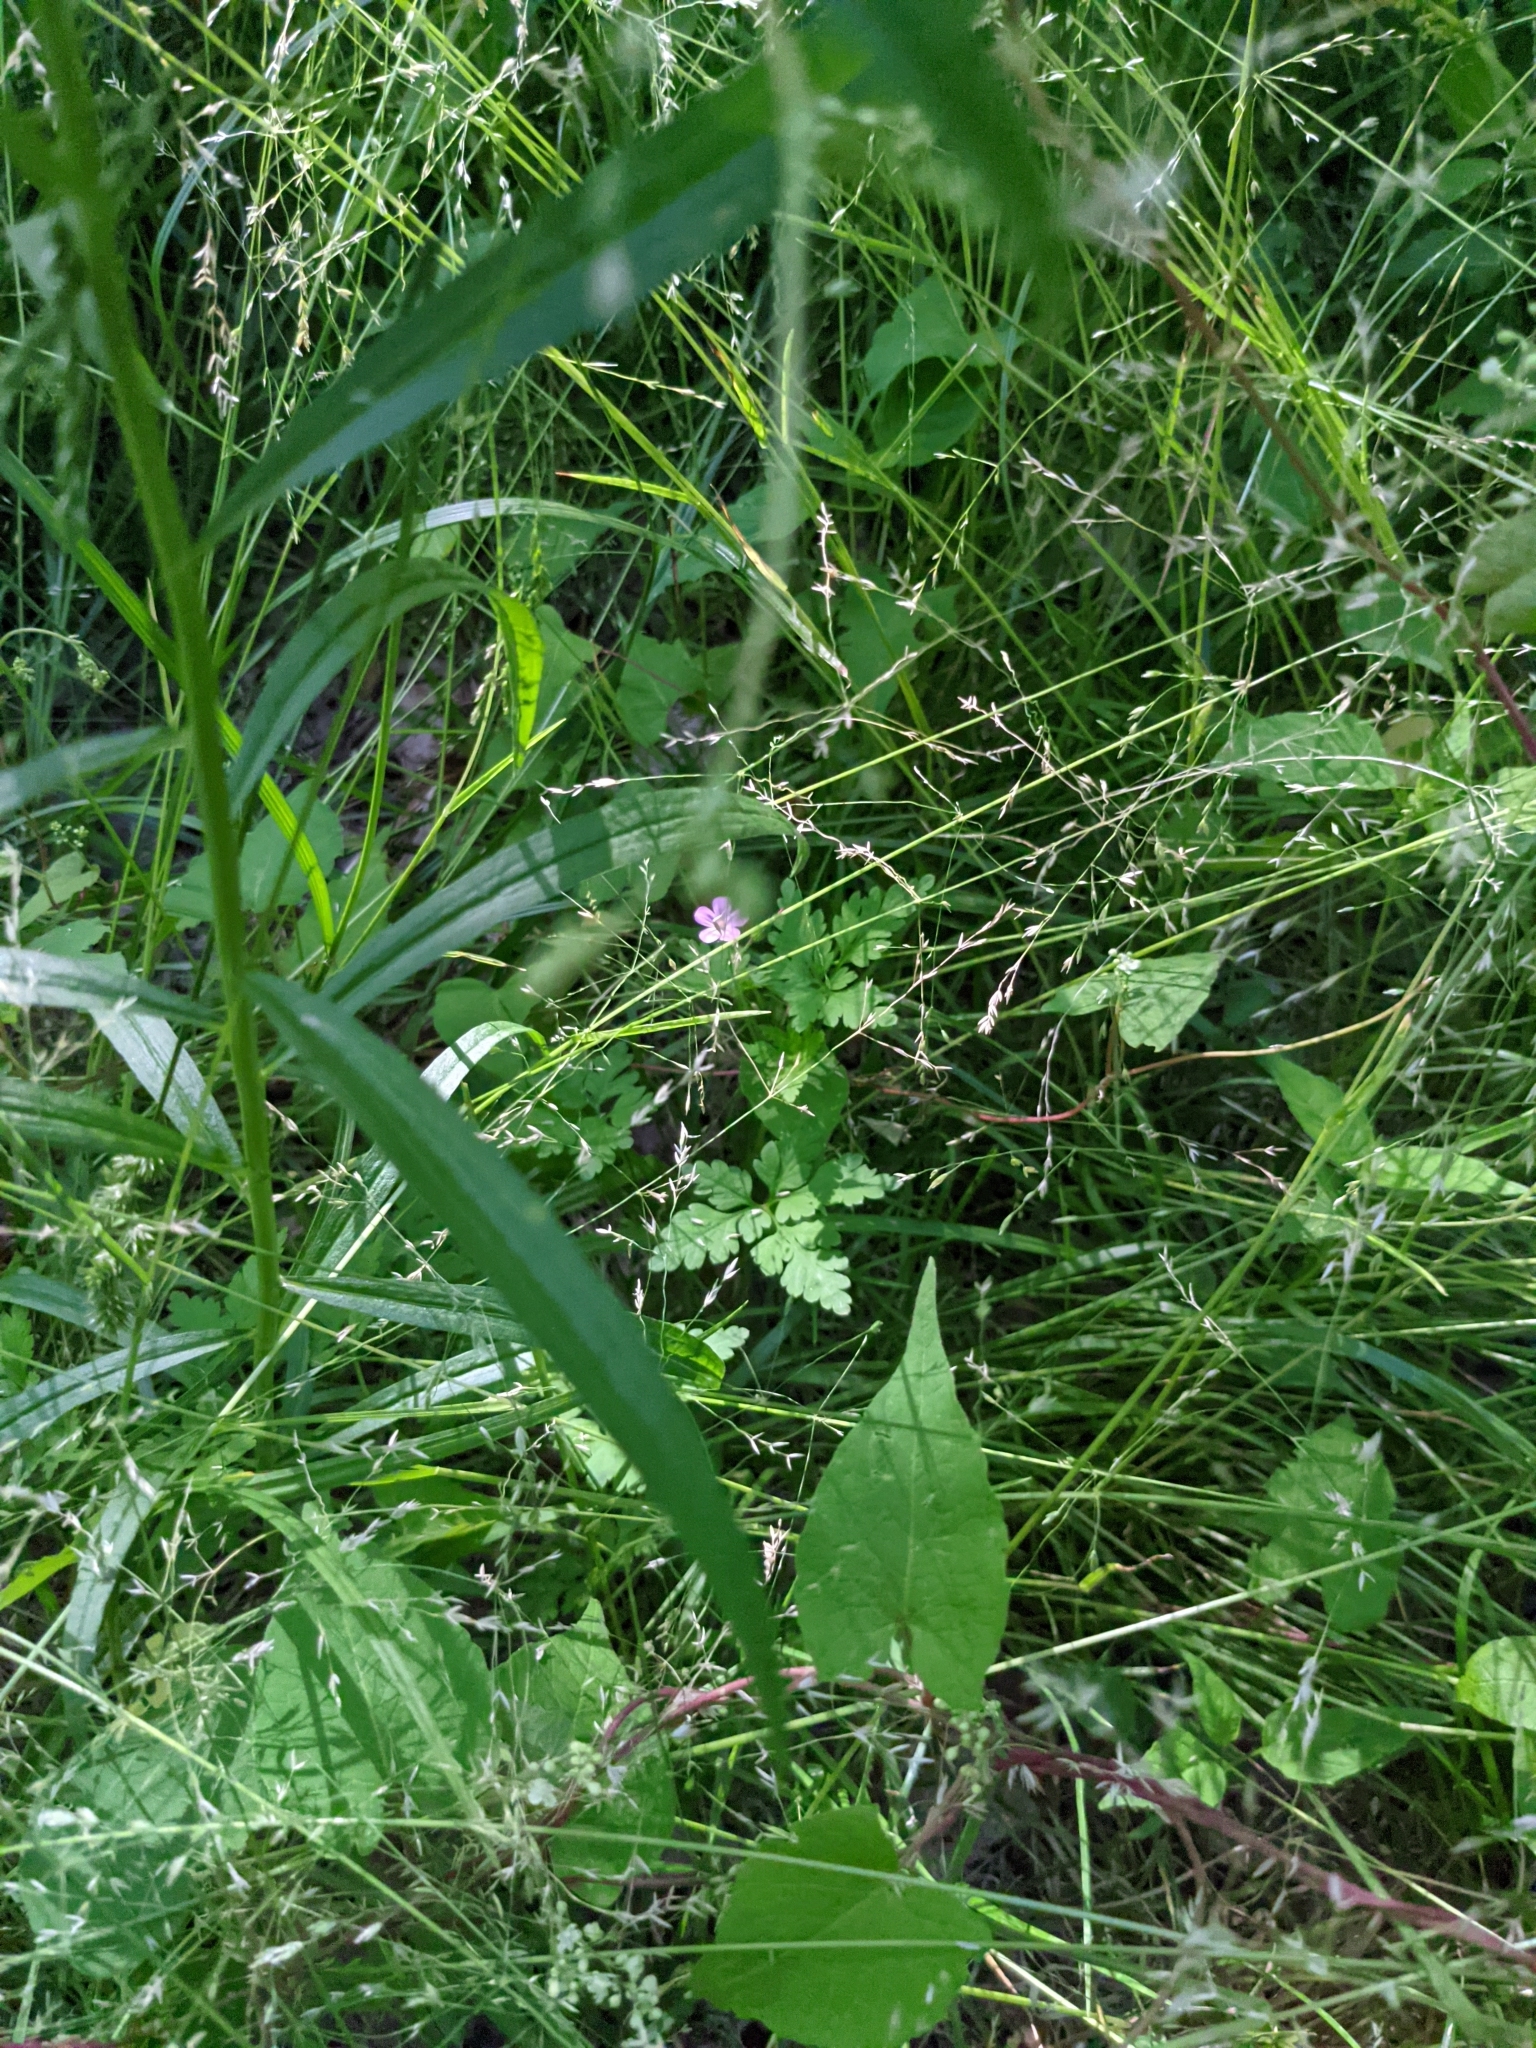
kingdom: Plantae
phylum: Tracheophyta
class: Magnoliopsida
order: Geraniales
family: Geraniaceae
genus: Geranium
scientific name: Geranium robertianum
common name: Herb-robert
